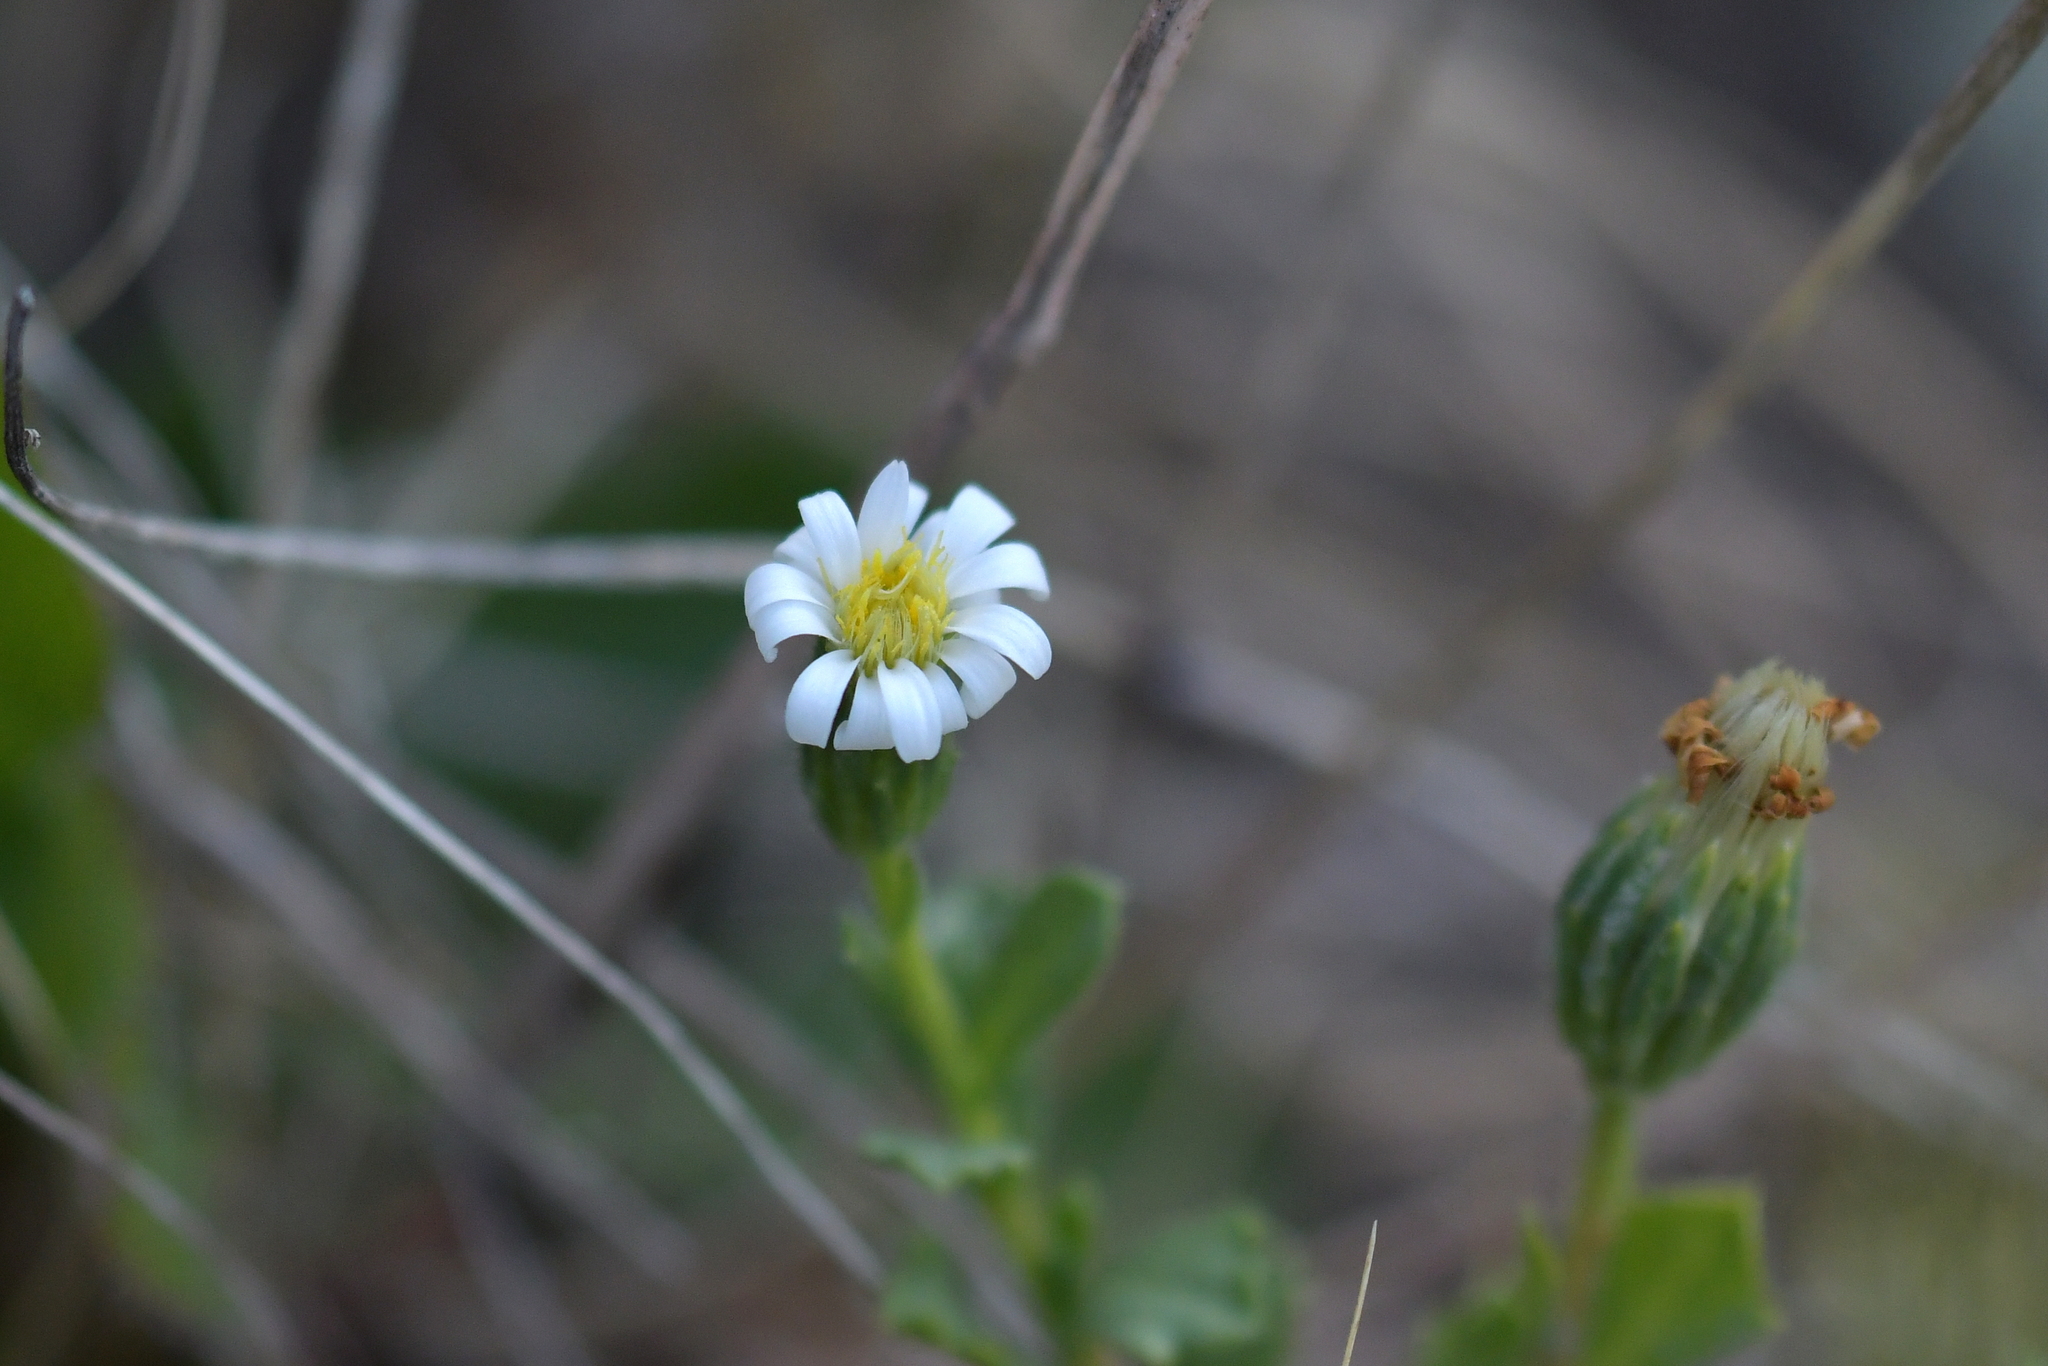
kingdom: Plantae
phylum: Tracheophyta
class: Magnoliopsida
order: Asterales
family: Asteraceae
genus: Vittadinia
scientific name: Vittadinia australis
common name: White fuzzweed
